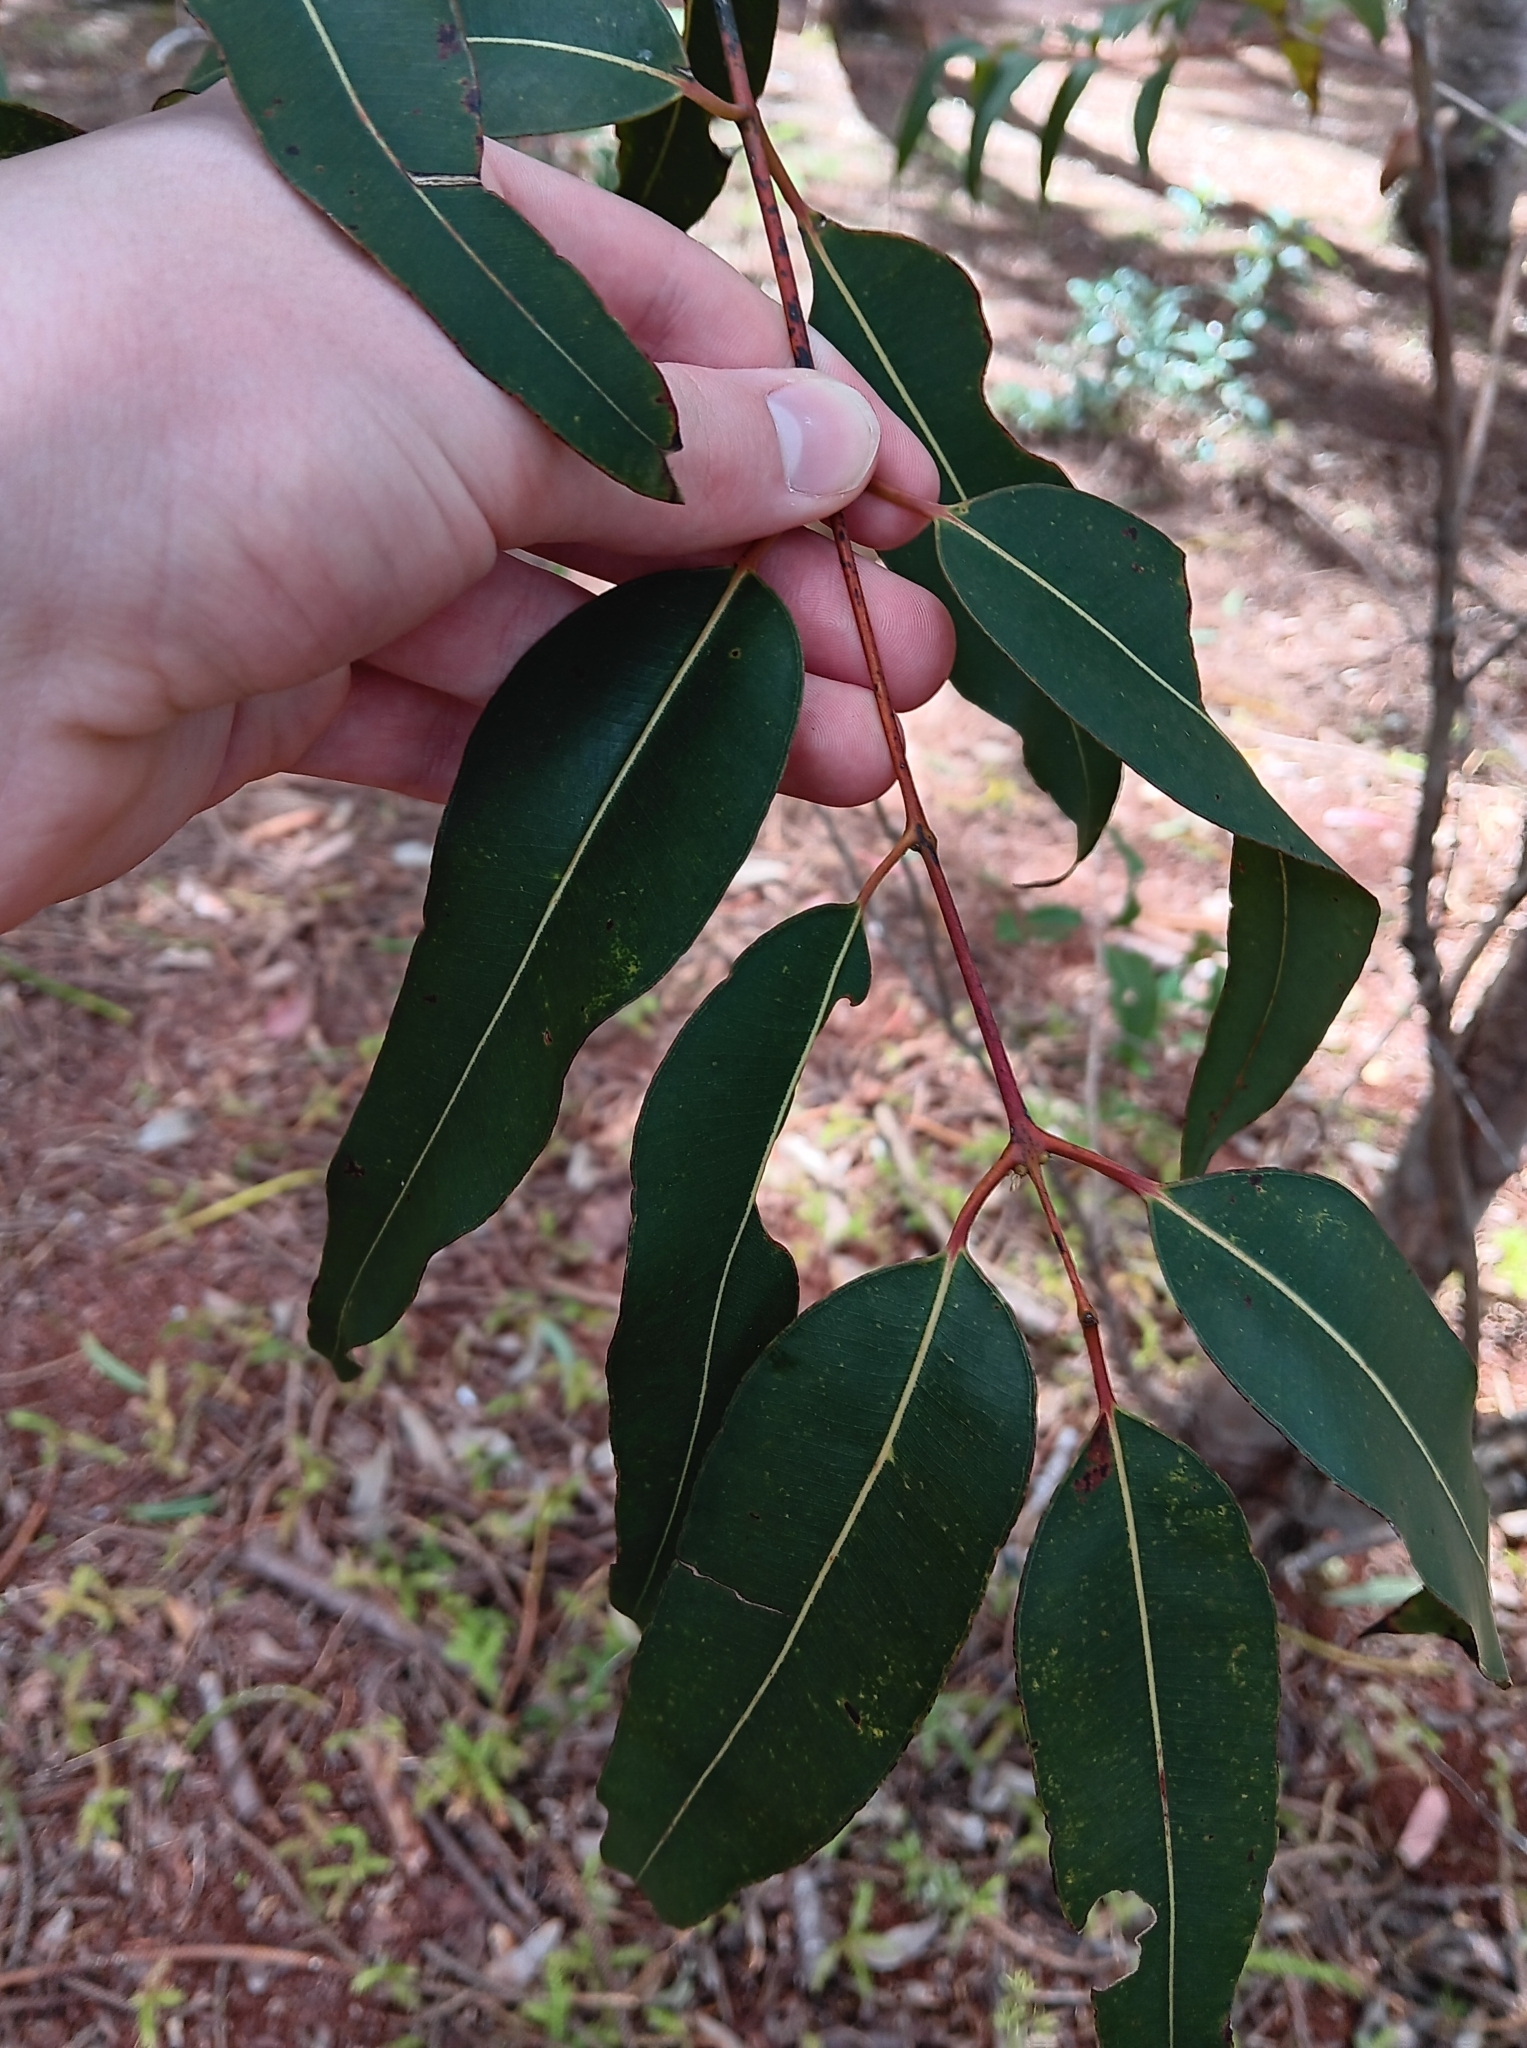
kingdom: Plantae
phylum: Tracheophyta
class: Magnoliopsida
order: Myrtales
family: Myrtaceae
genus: Eucalyptus
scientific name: Eucalyptus robusta
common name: Swampmahogany
